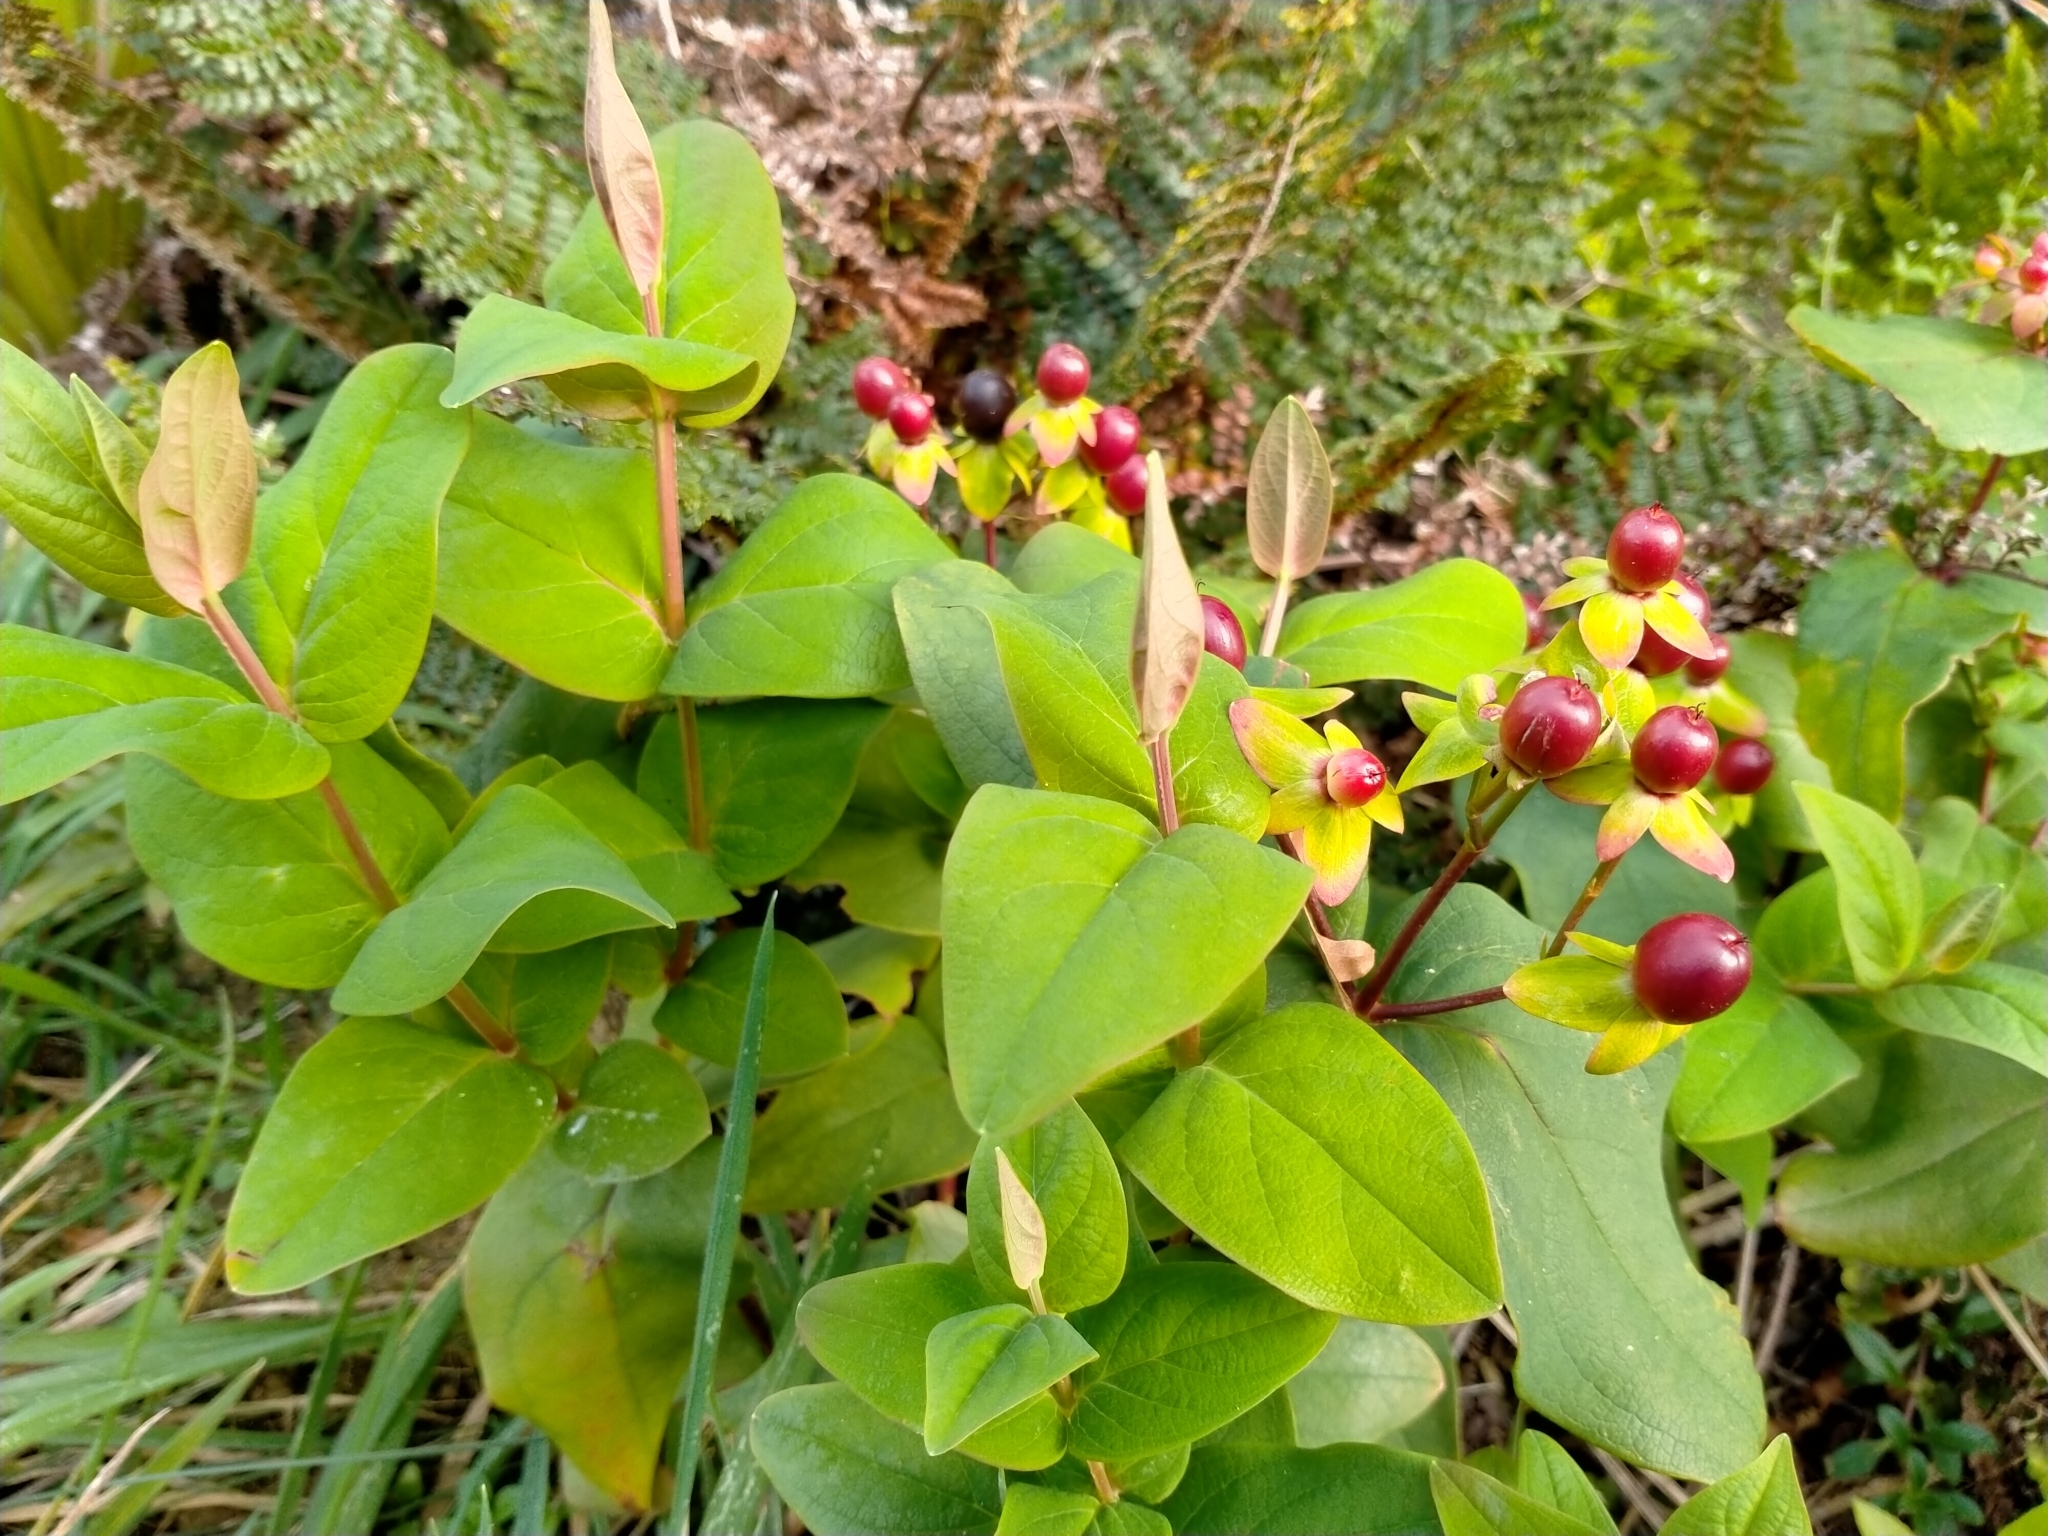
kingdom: Plantae
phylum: Tracheophyta
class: Magnoliopsida
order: Malpighiales
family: Hypericaceae
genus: Hypericum
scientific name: Hypericum androsaemum
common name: Sweet-amber
